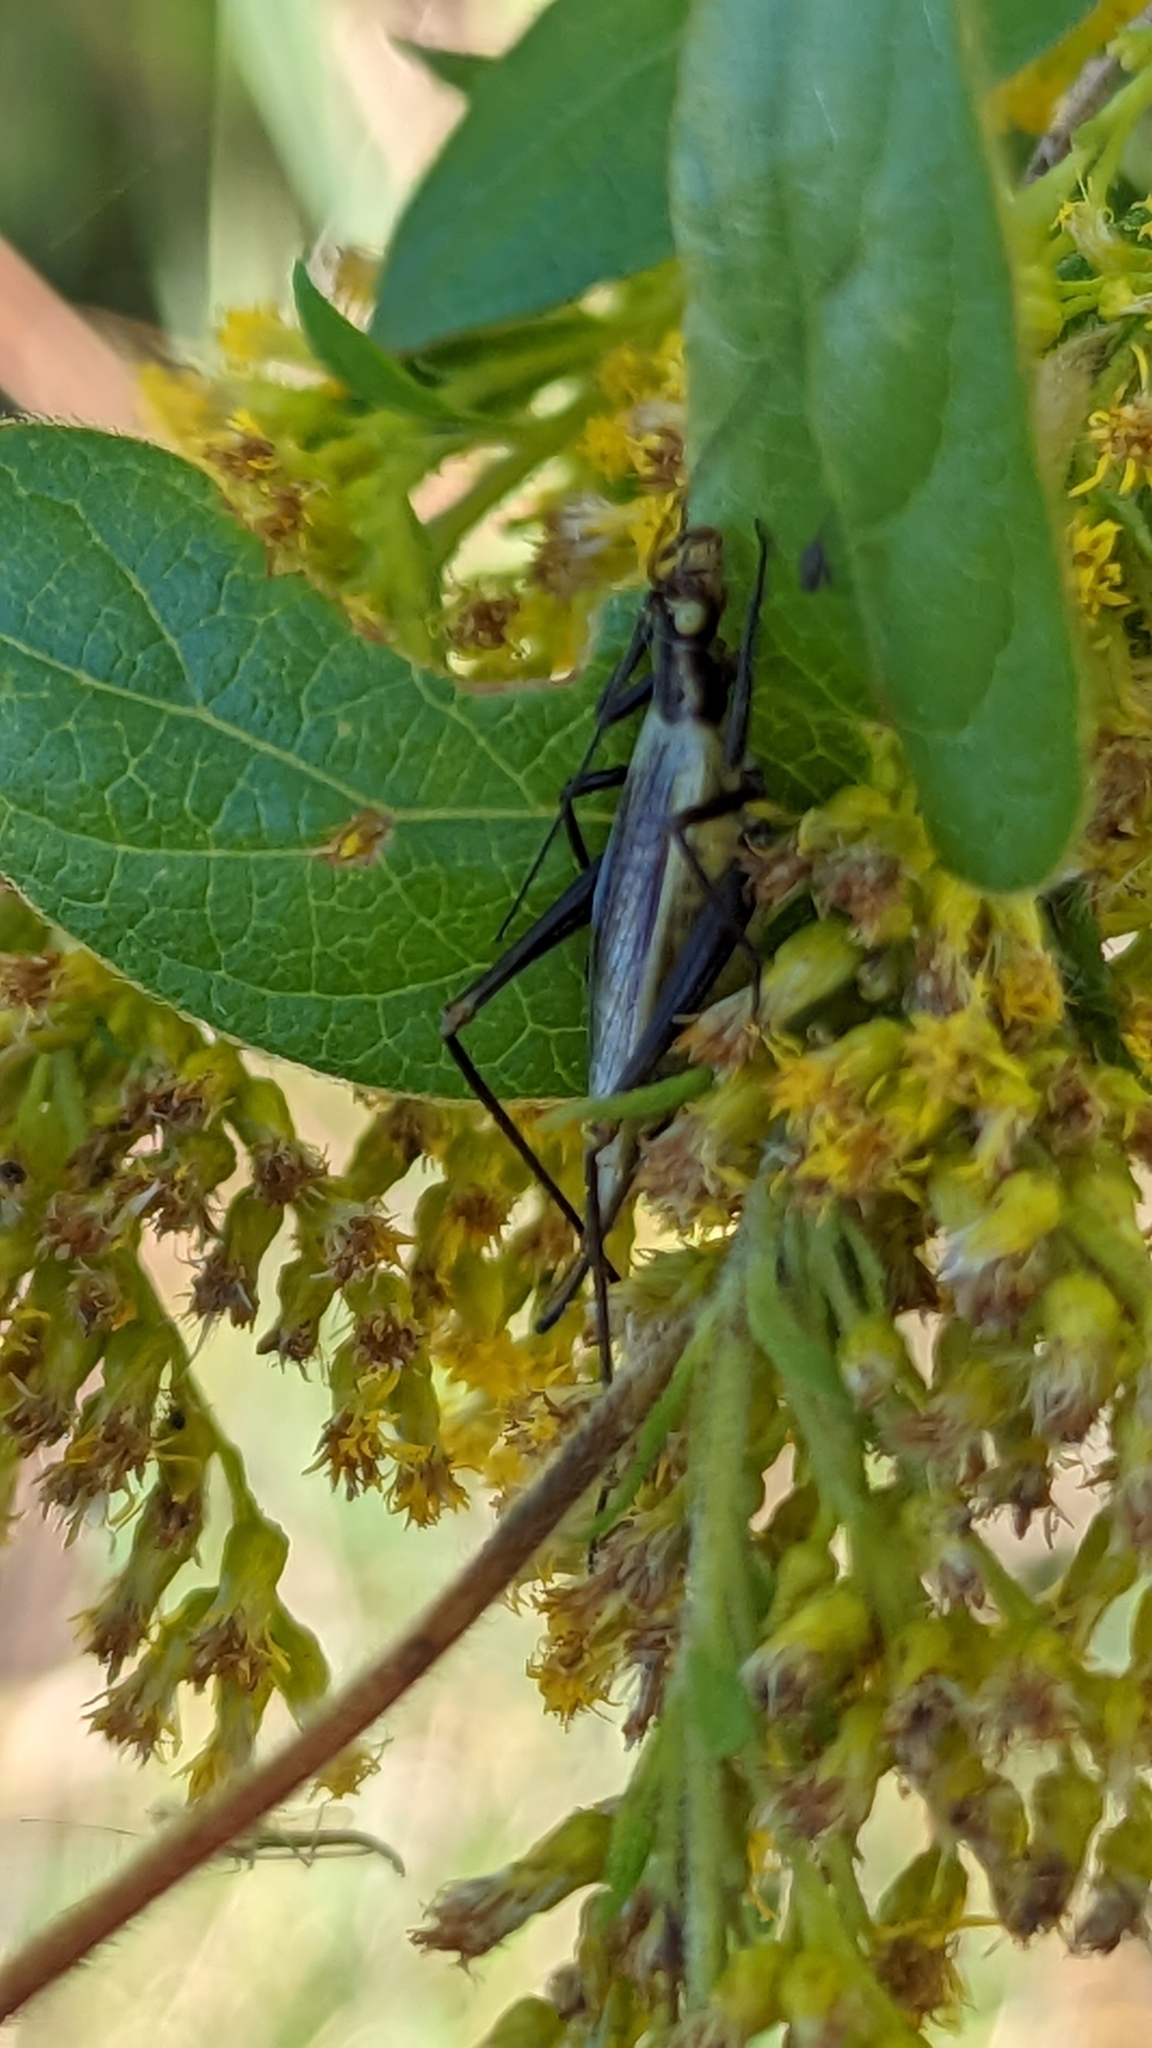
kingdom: Animalia
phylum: Arthropoda
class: Insecta
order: Orthoptera
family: Gryllidae
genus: Oecanthus
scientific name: Oecanthus
